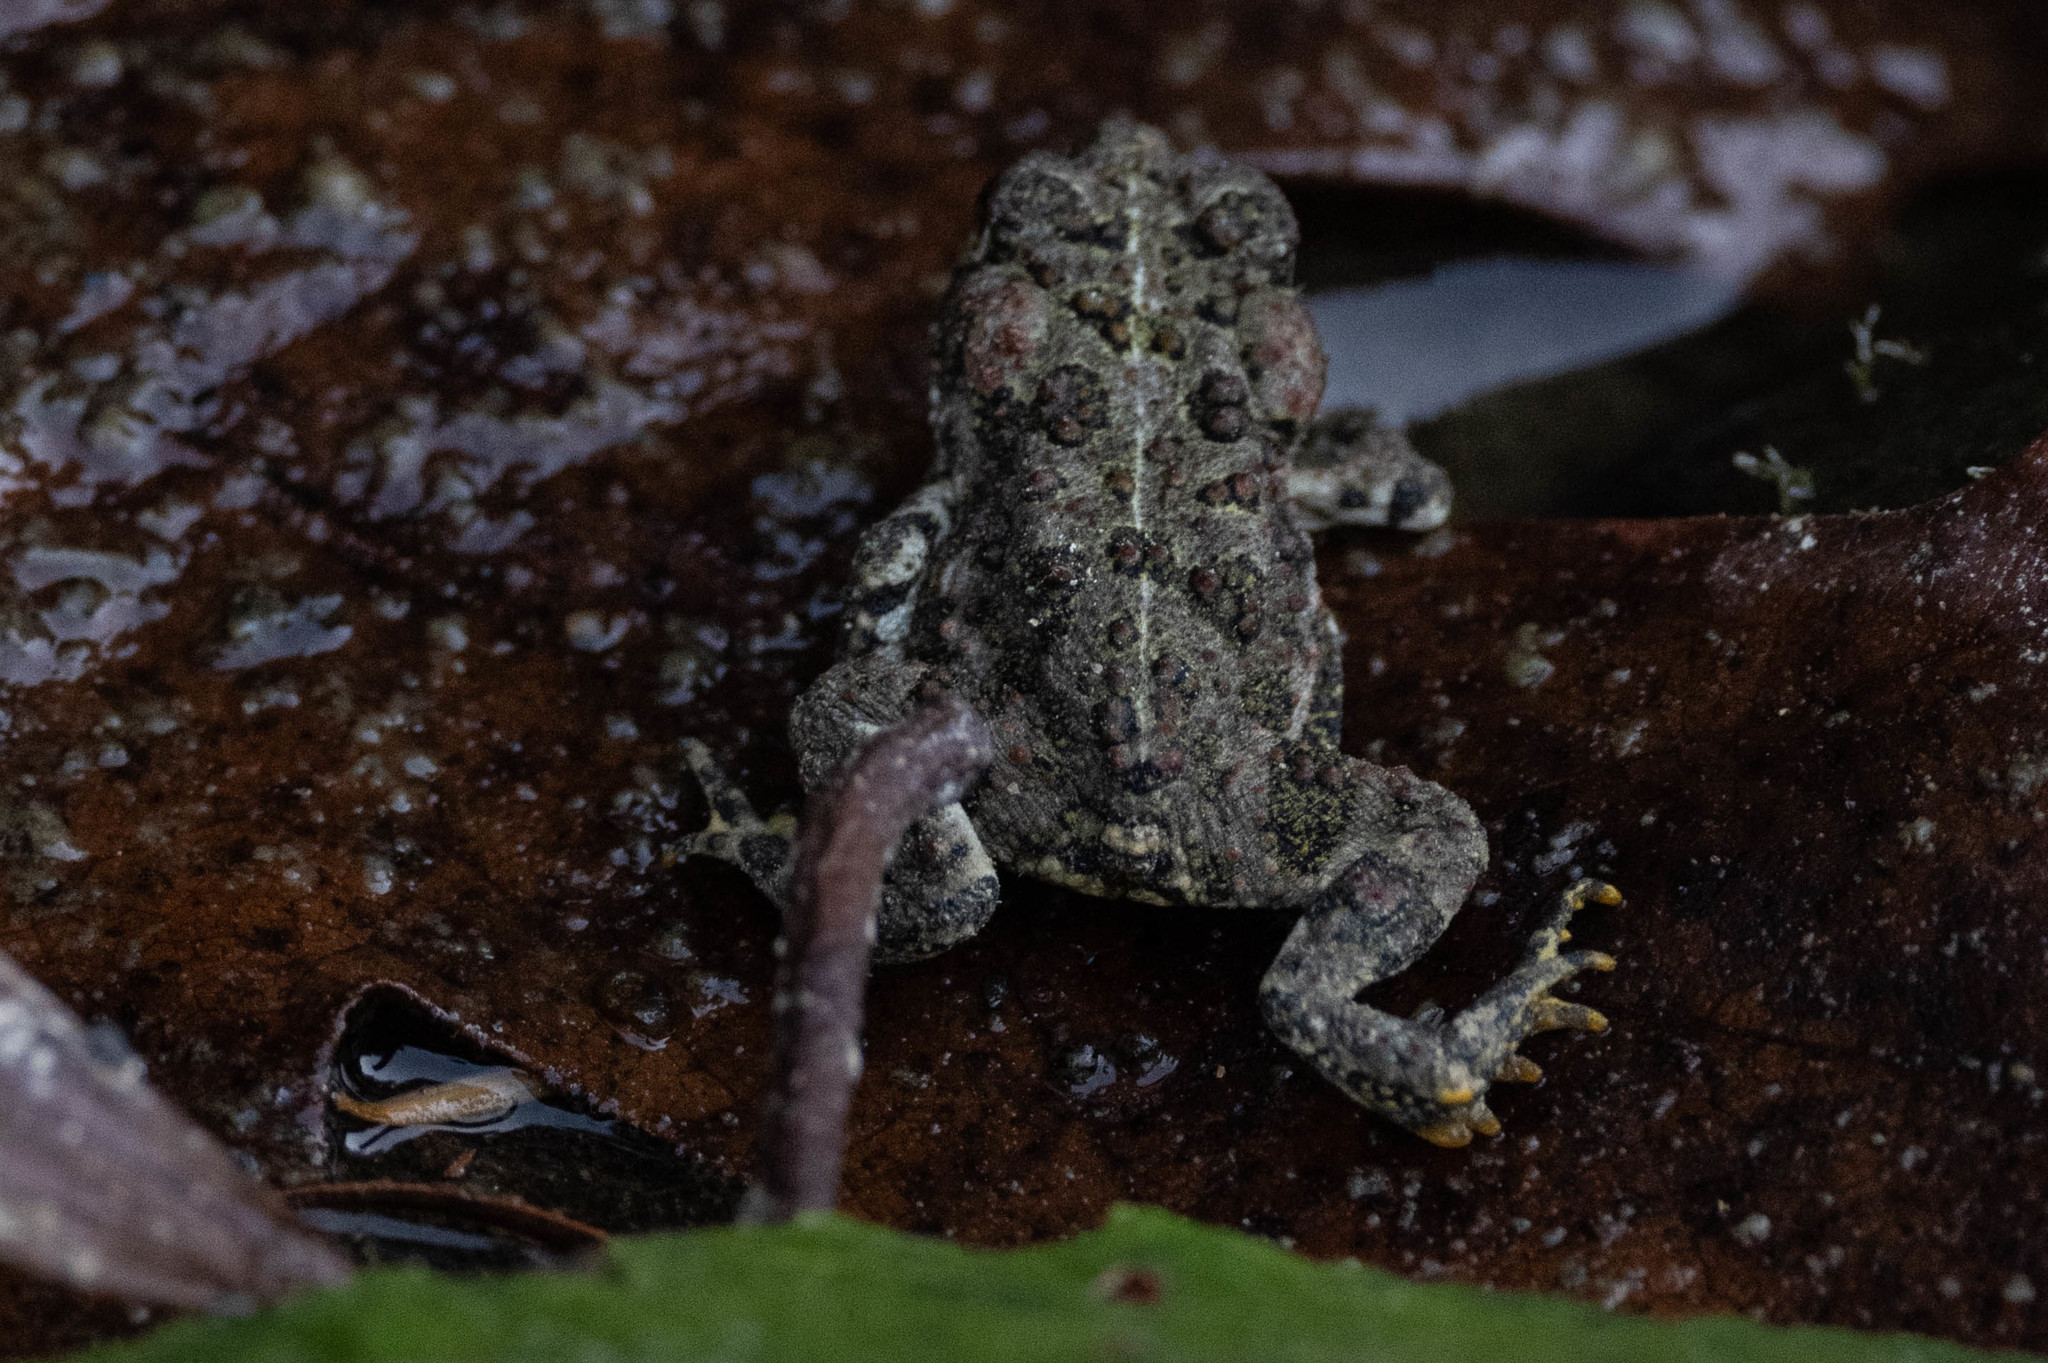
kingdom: Animalia
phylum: Chordata
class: Amphibia
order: Anura
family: Bufonidae
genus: Anaxyrus
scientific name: Anaxyrus boreas
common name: Western toad
